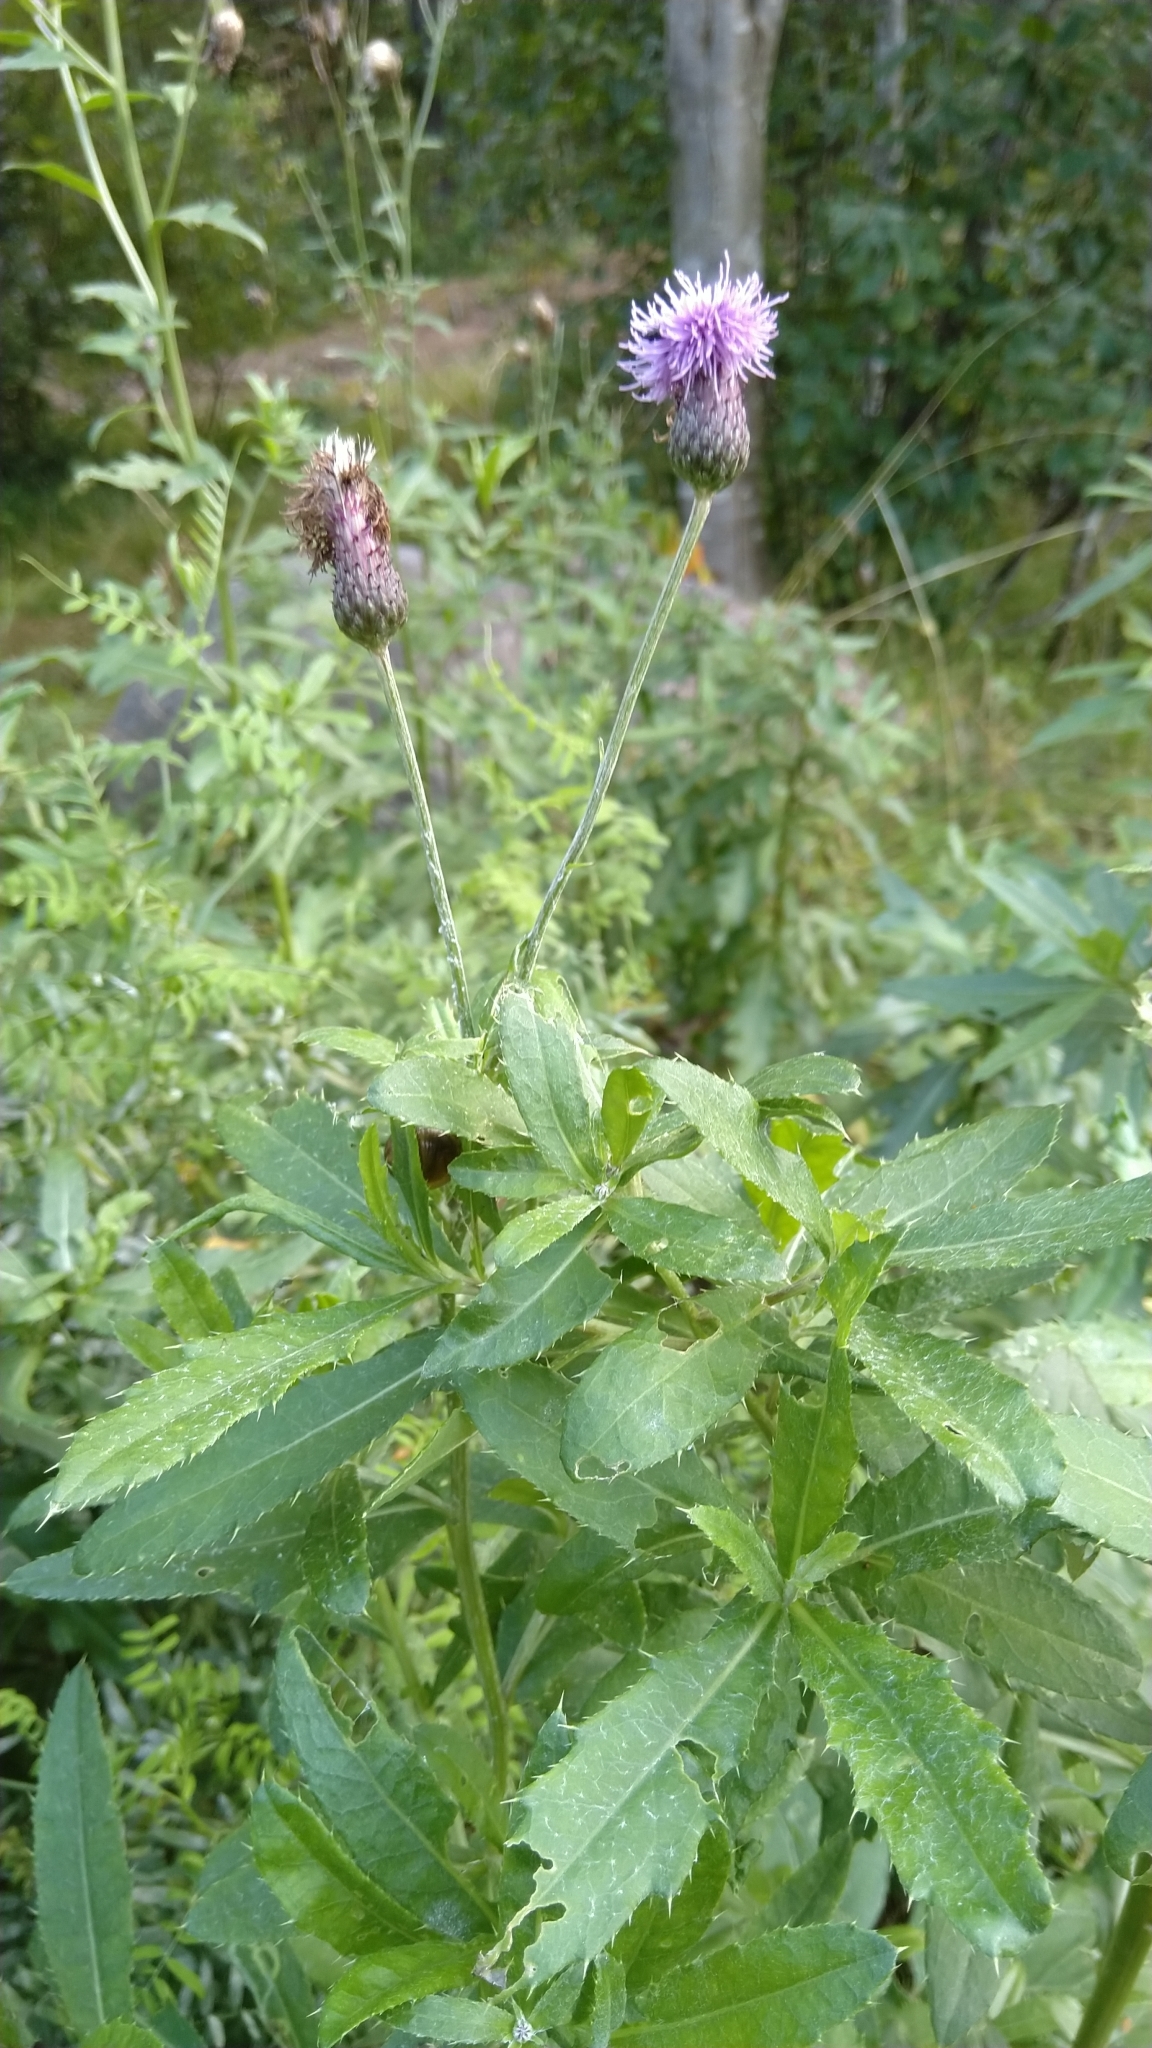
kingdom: Plantae
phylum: Tracheophyta
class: Magnoliopsida
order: Asterales
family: Asteraceae
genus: Cirsium
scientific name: Cirsium arvense
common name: Creeping thistle
